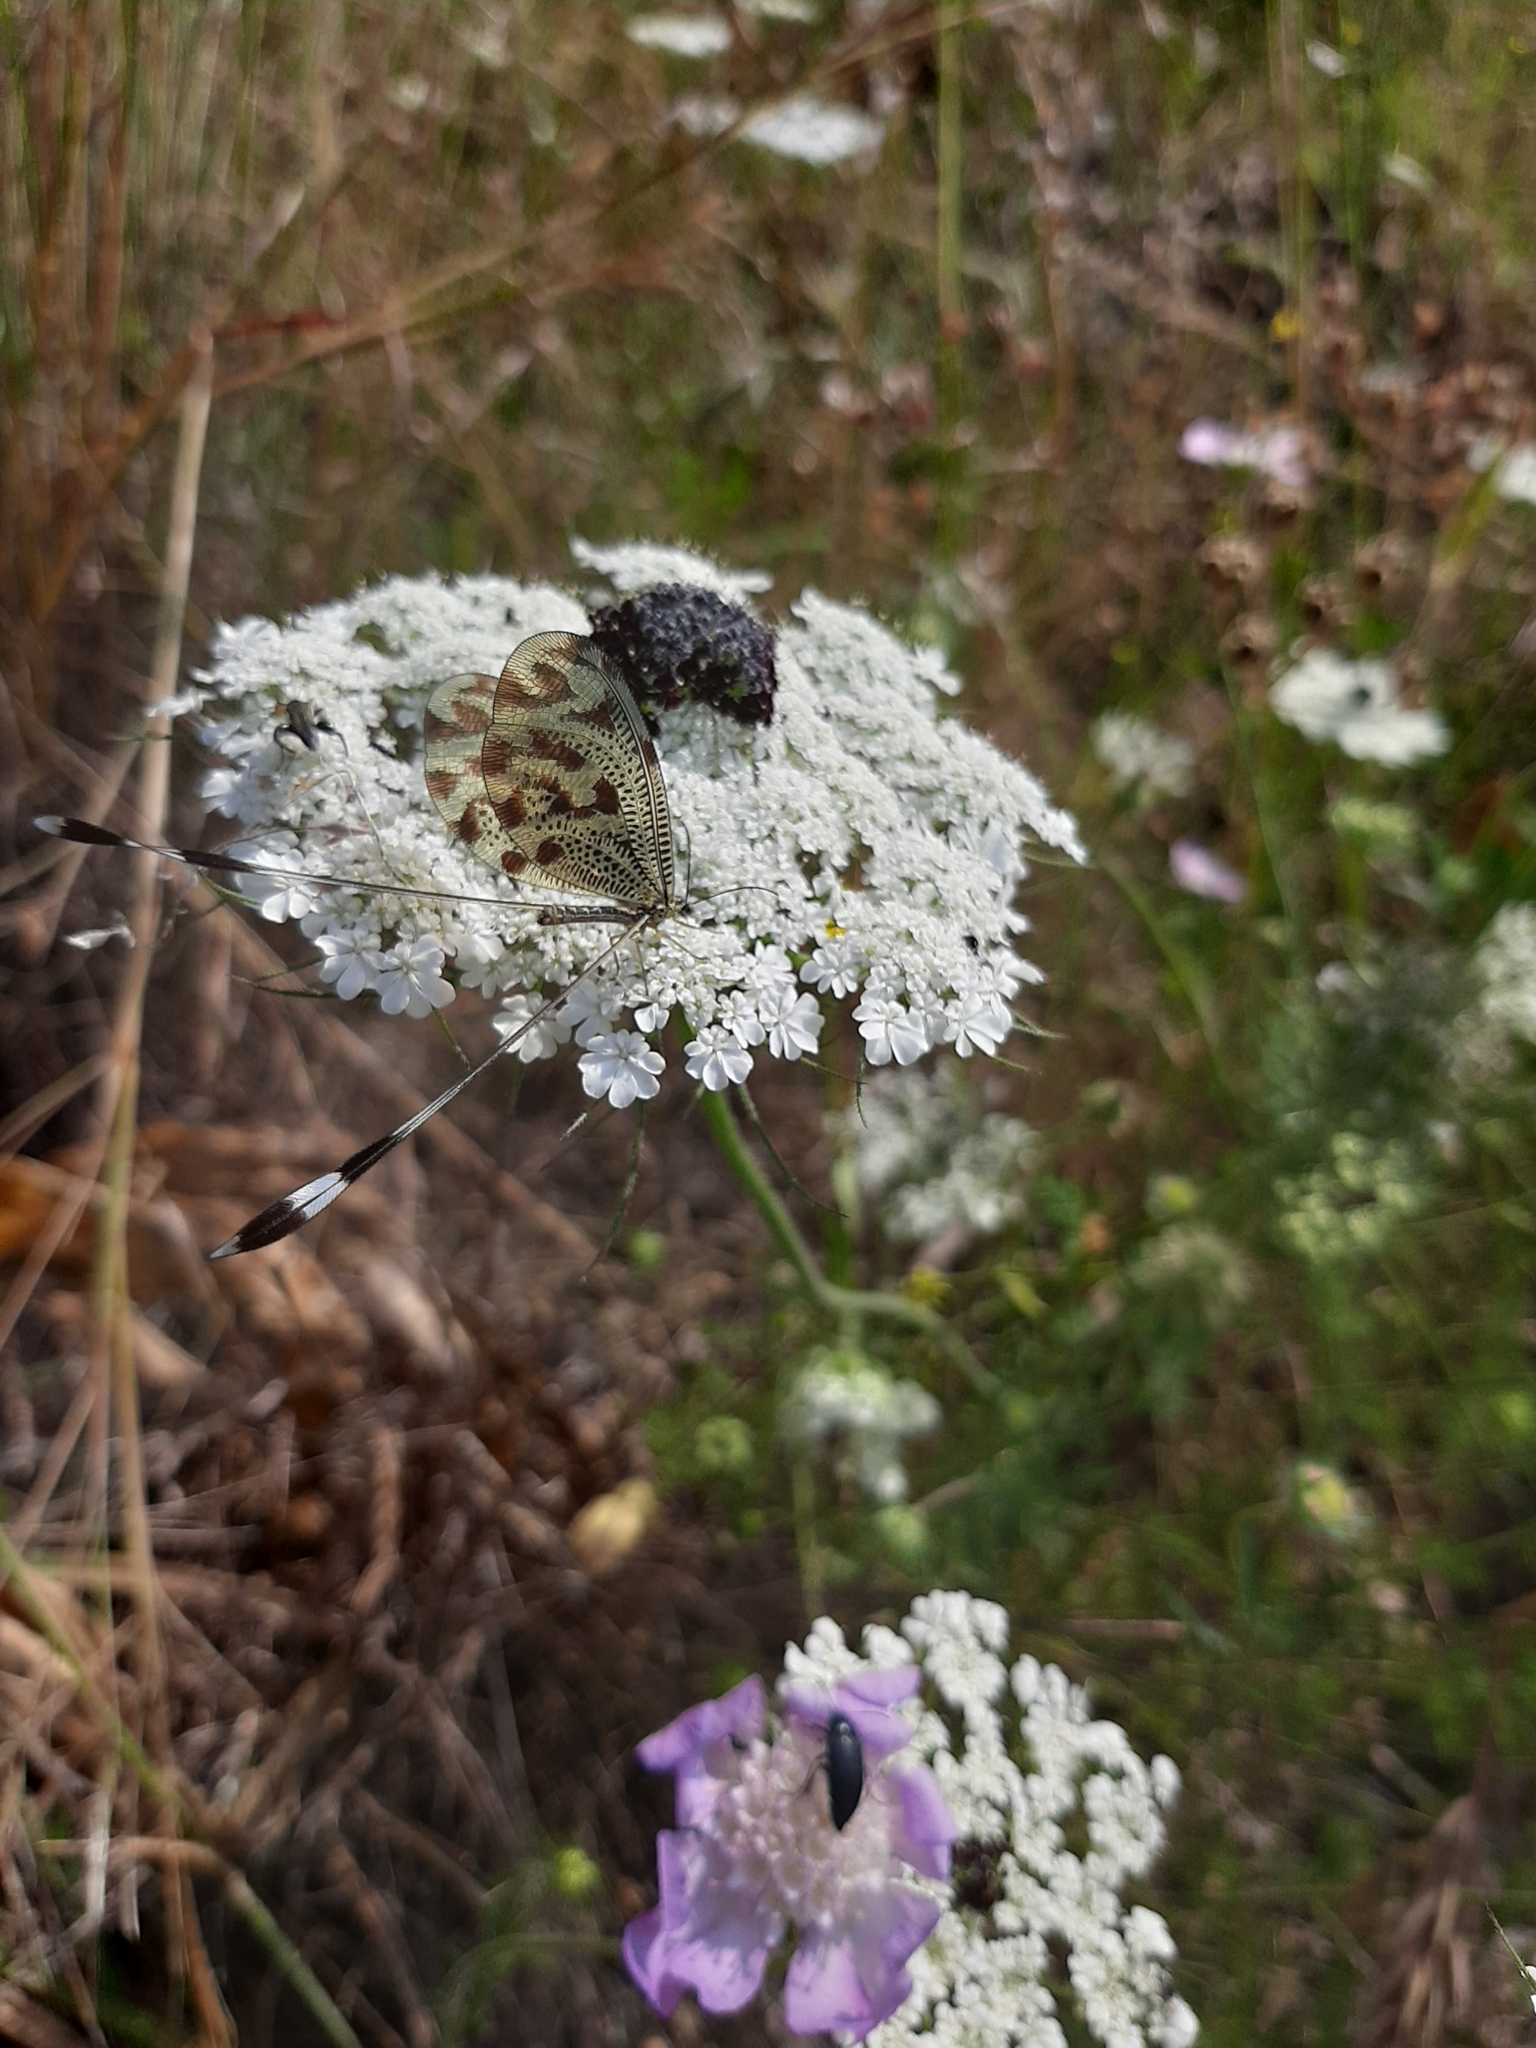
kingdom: Animalia
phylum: Arthropoda
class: Insecta
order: Neuroptera
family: Nemopteridae
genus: Nemoptera
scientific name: Nemoptera coa
